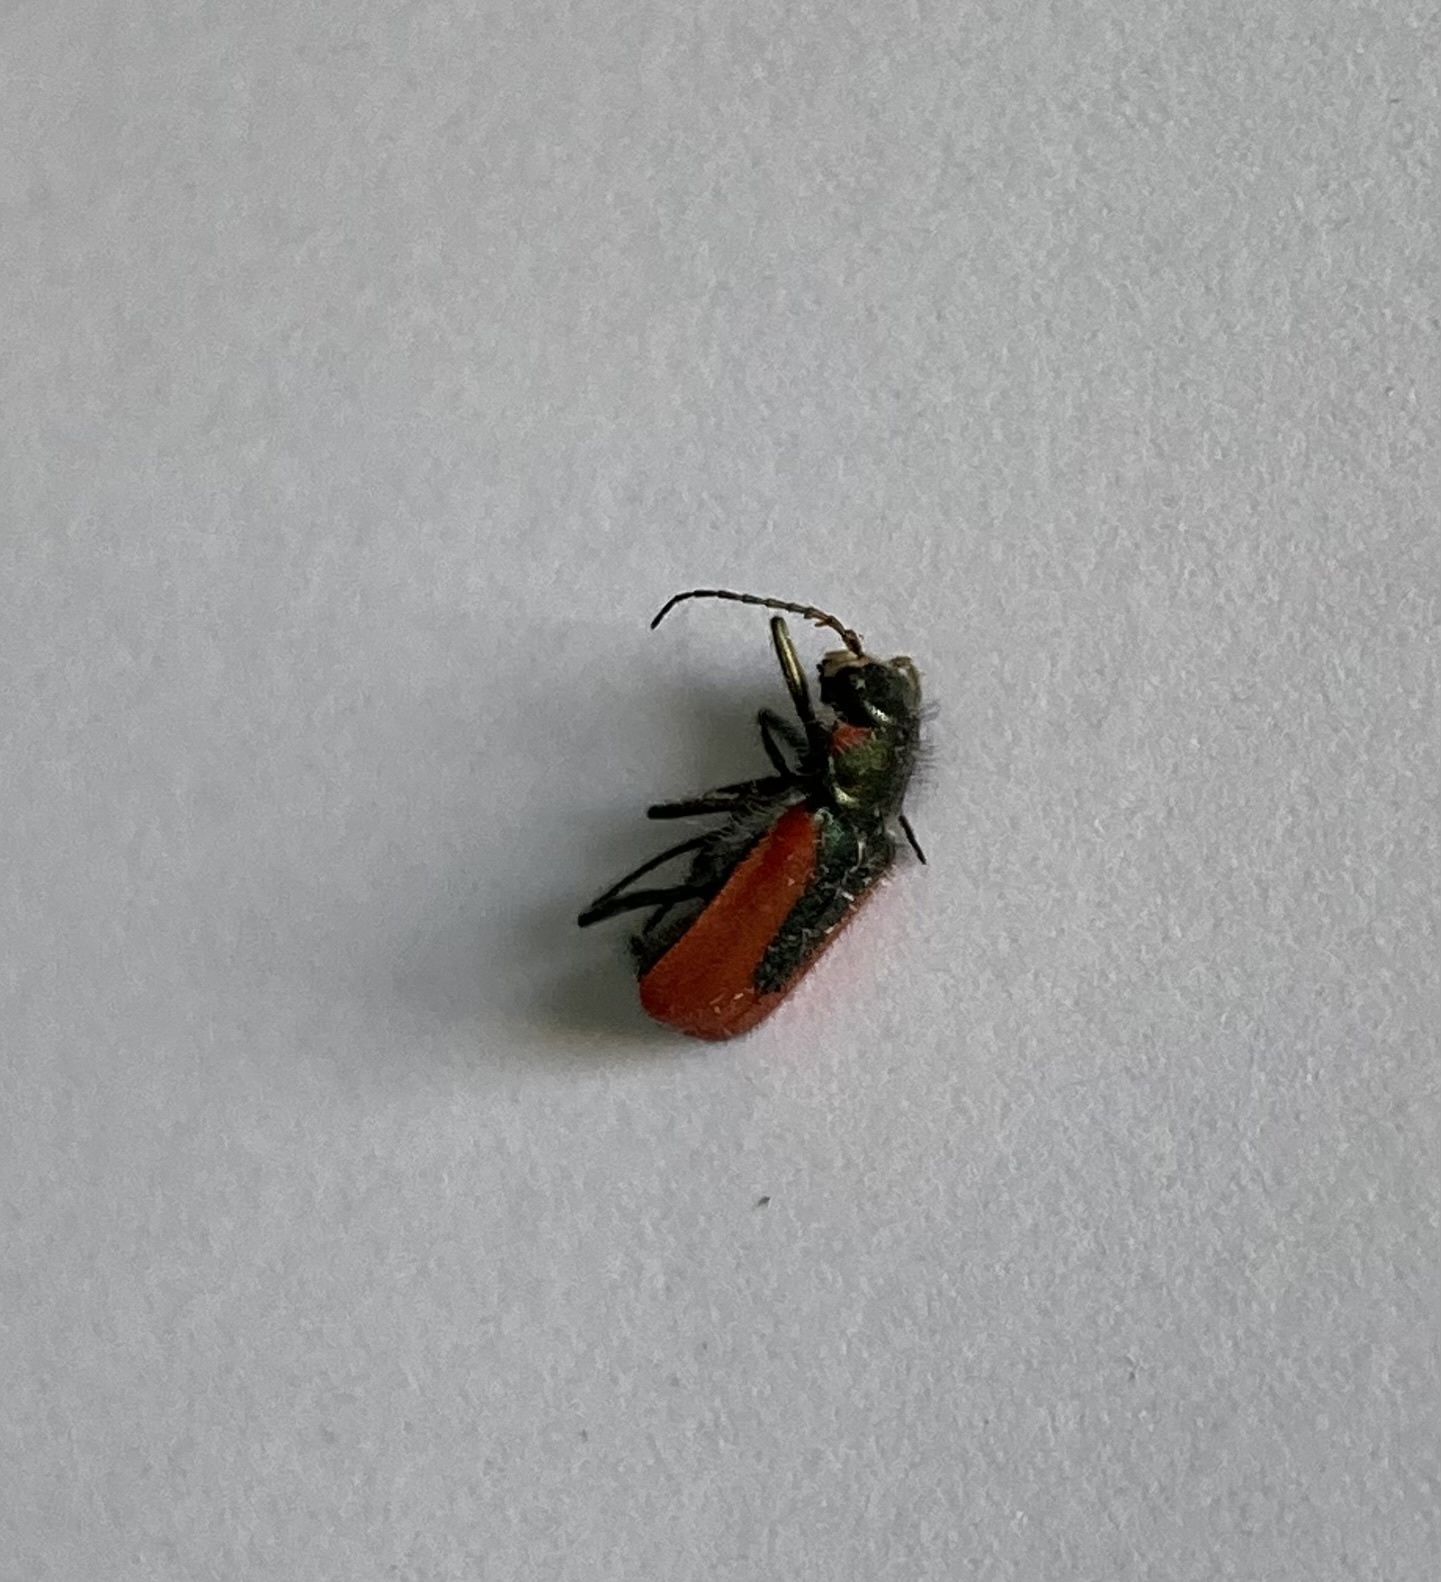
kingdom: Animalia
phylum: Arthropoda
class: Insecta
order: Coleoptera
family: Melyridae
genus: Malachius
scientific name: Malachius aeneus
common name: Scarlet malachite beetle
